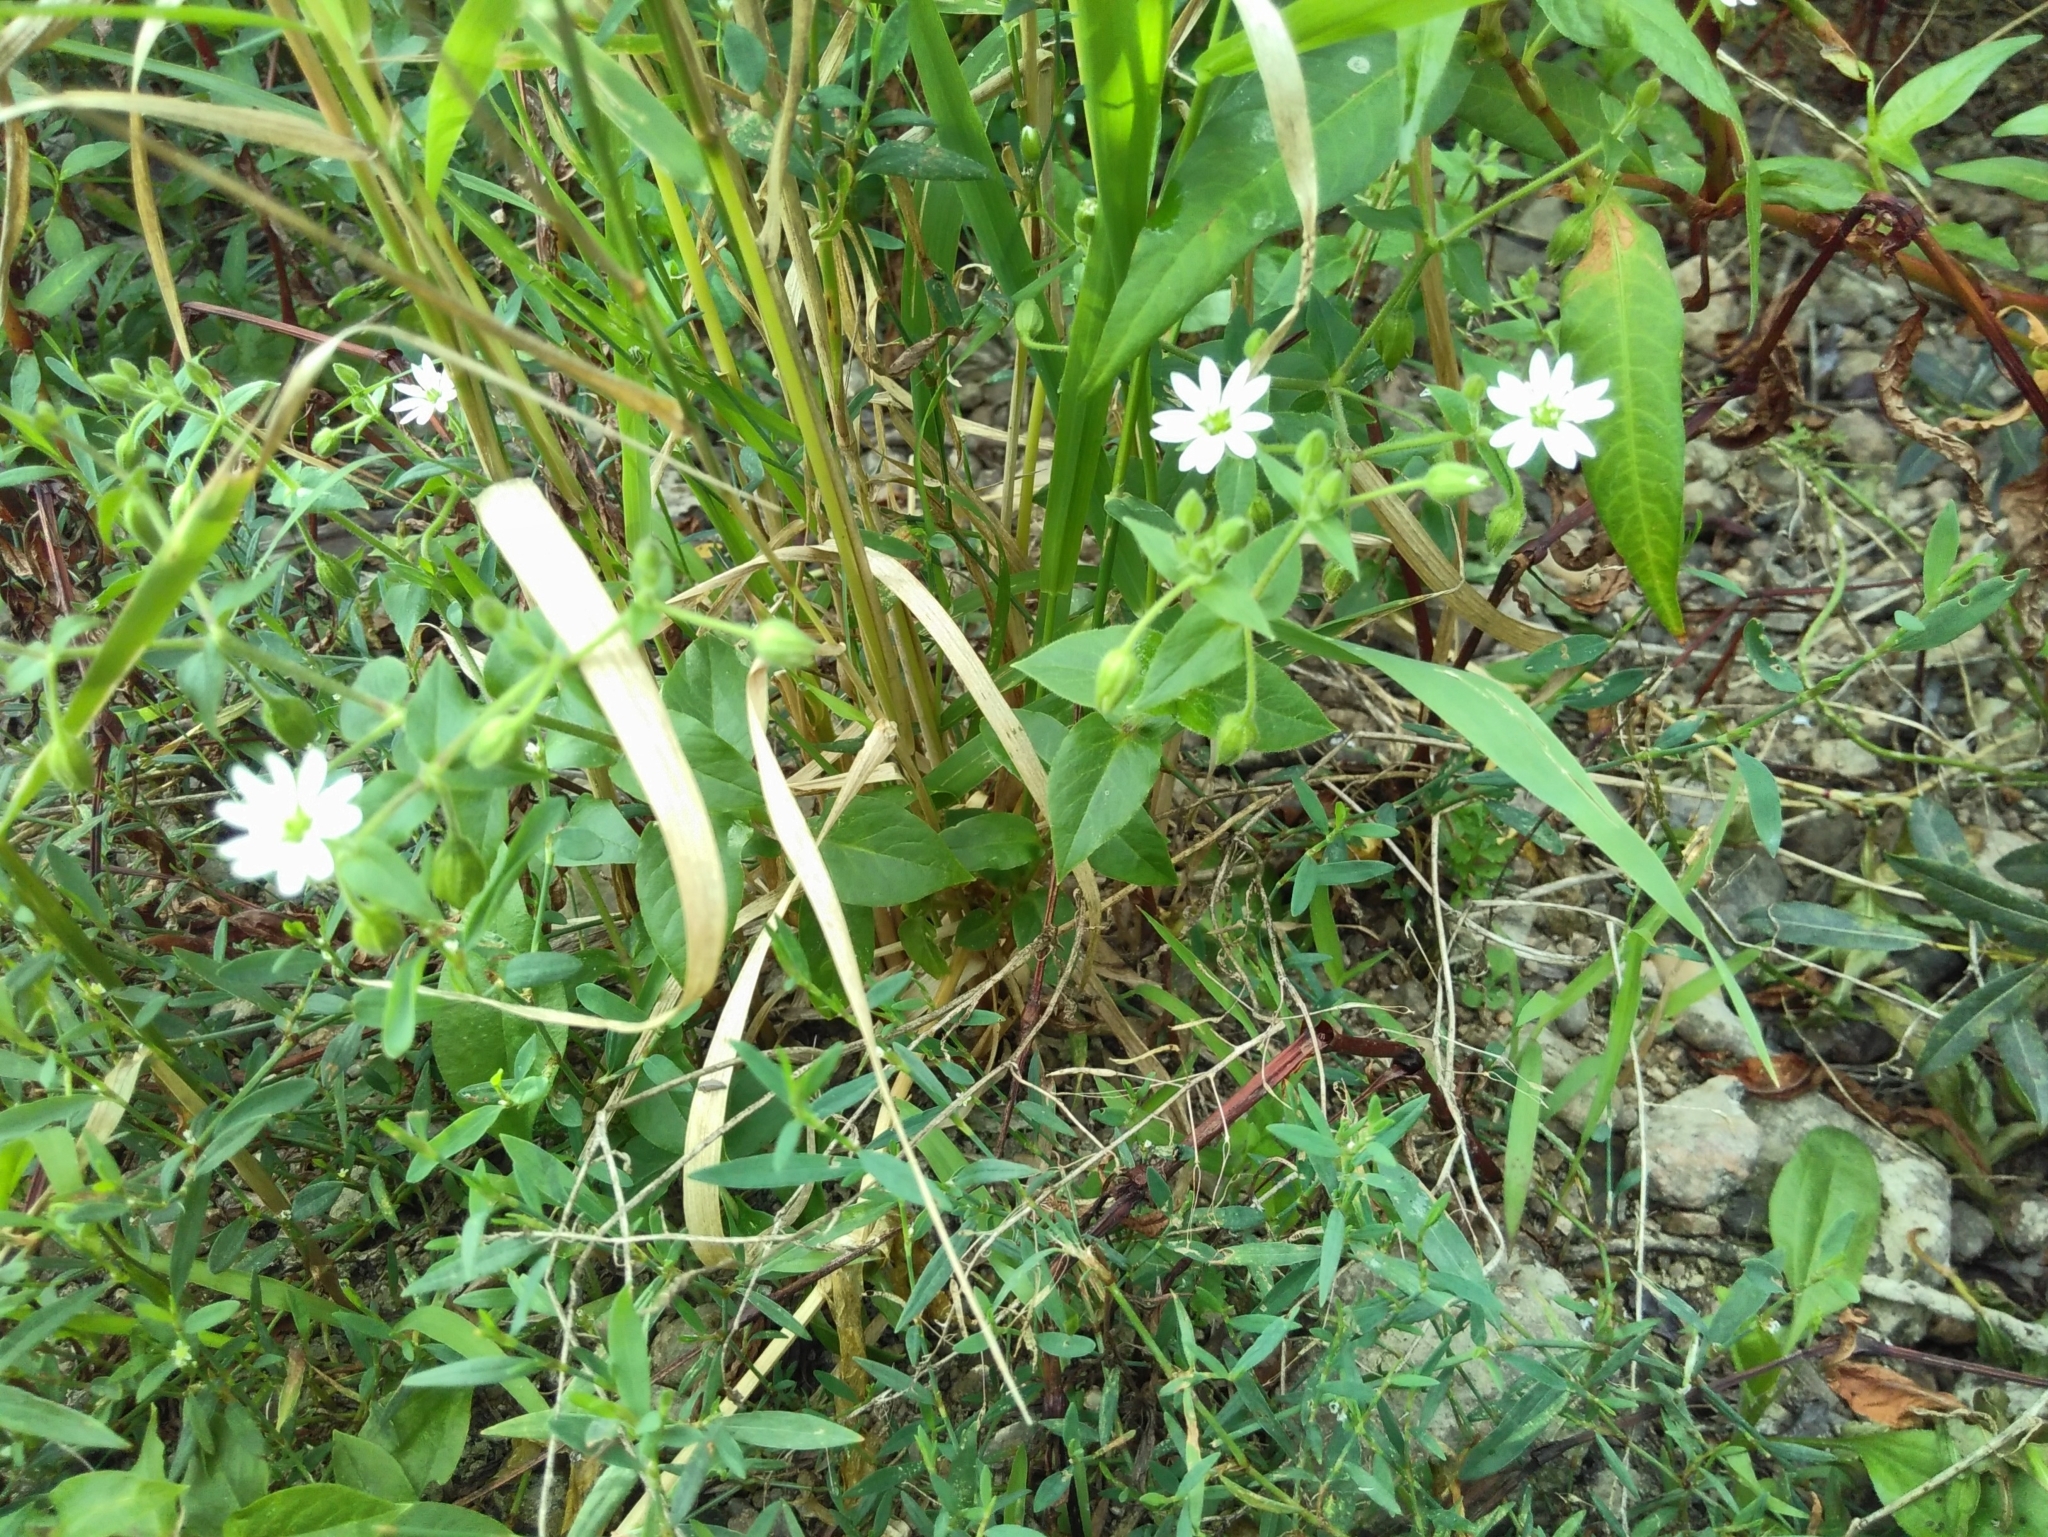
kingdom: Plantae
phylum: Tracheophyta
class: Magnoliopsida
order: Caryophyllales
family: Caryophyllaceae
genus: Stellaria
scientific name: Stellaria aquatica
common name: Water chickweed
